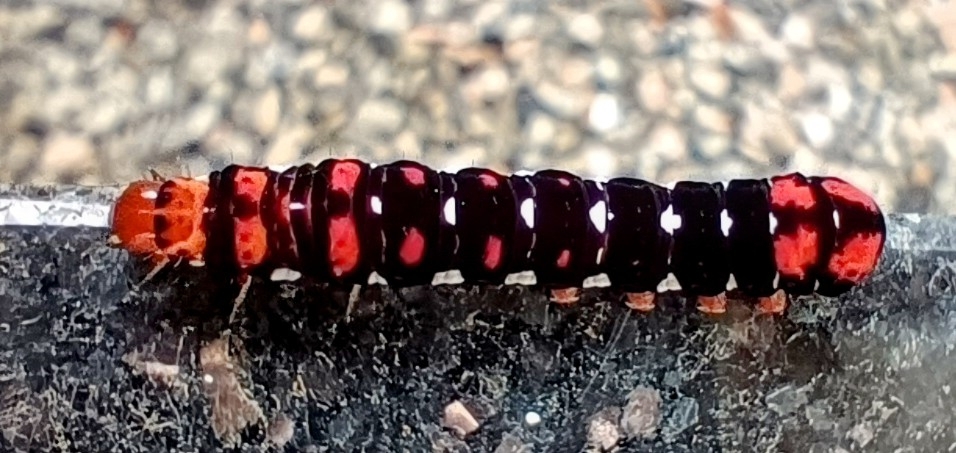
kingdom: Animalia
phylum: Arthropoda
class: Insecta
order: Lepidoptera
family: Noctuidae
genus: Polytela
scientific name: Polytela gloriosae
